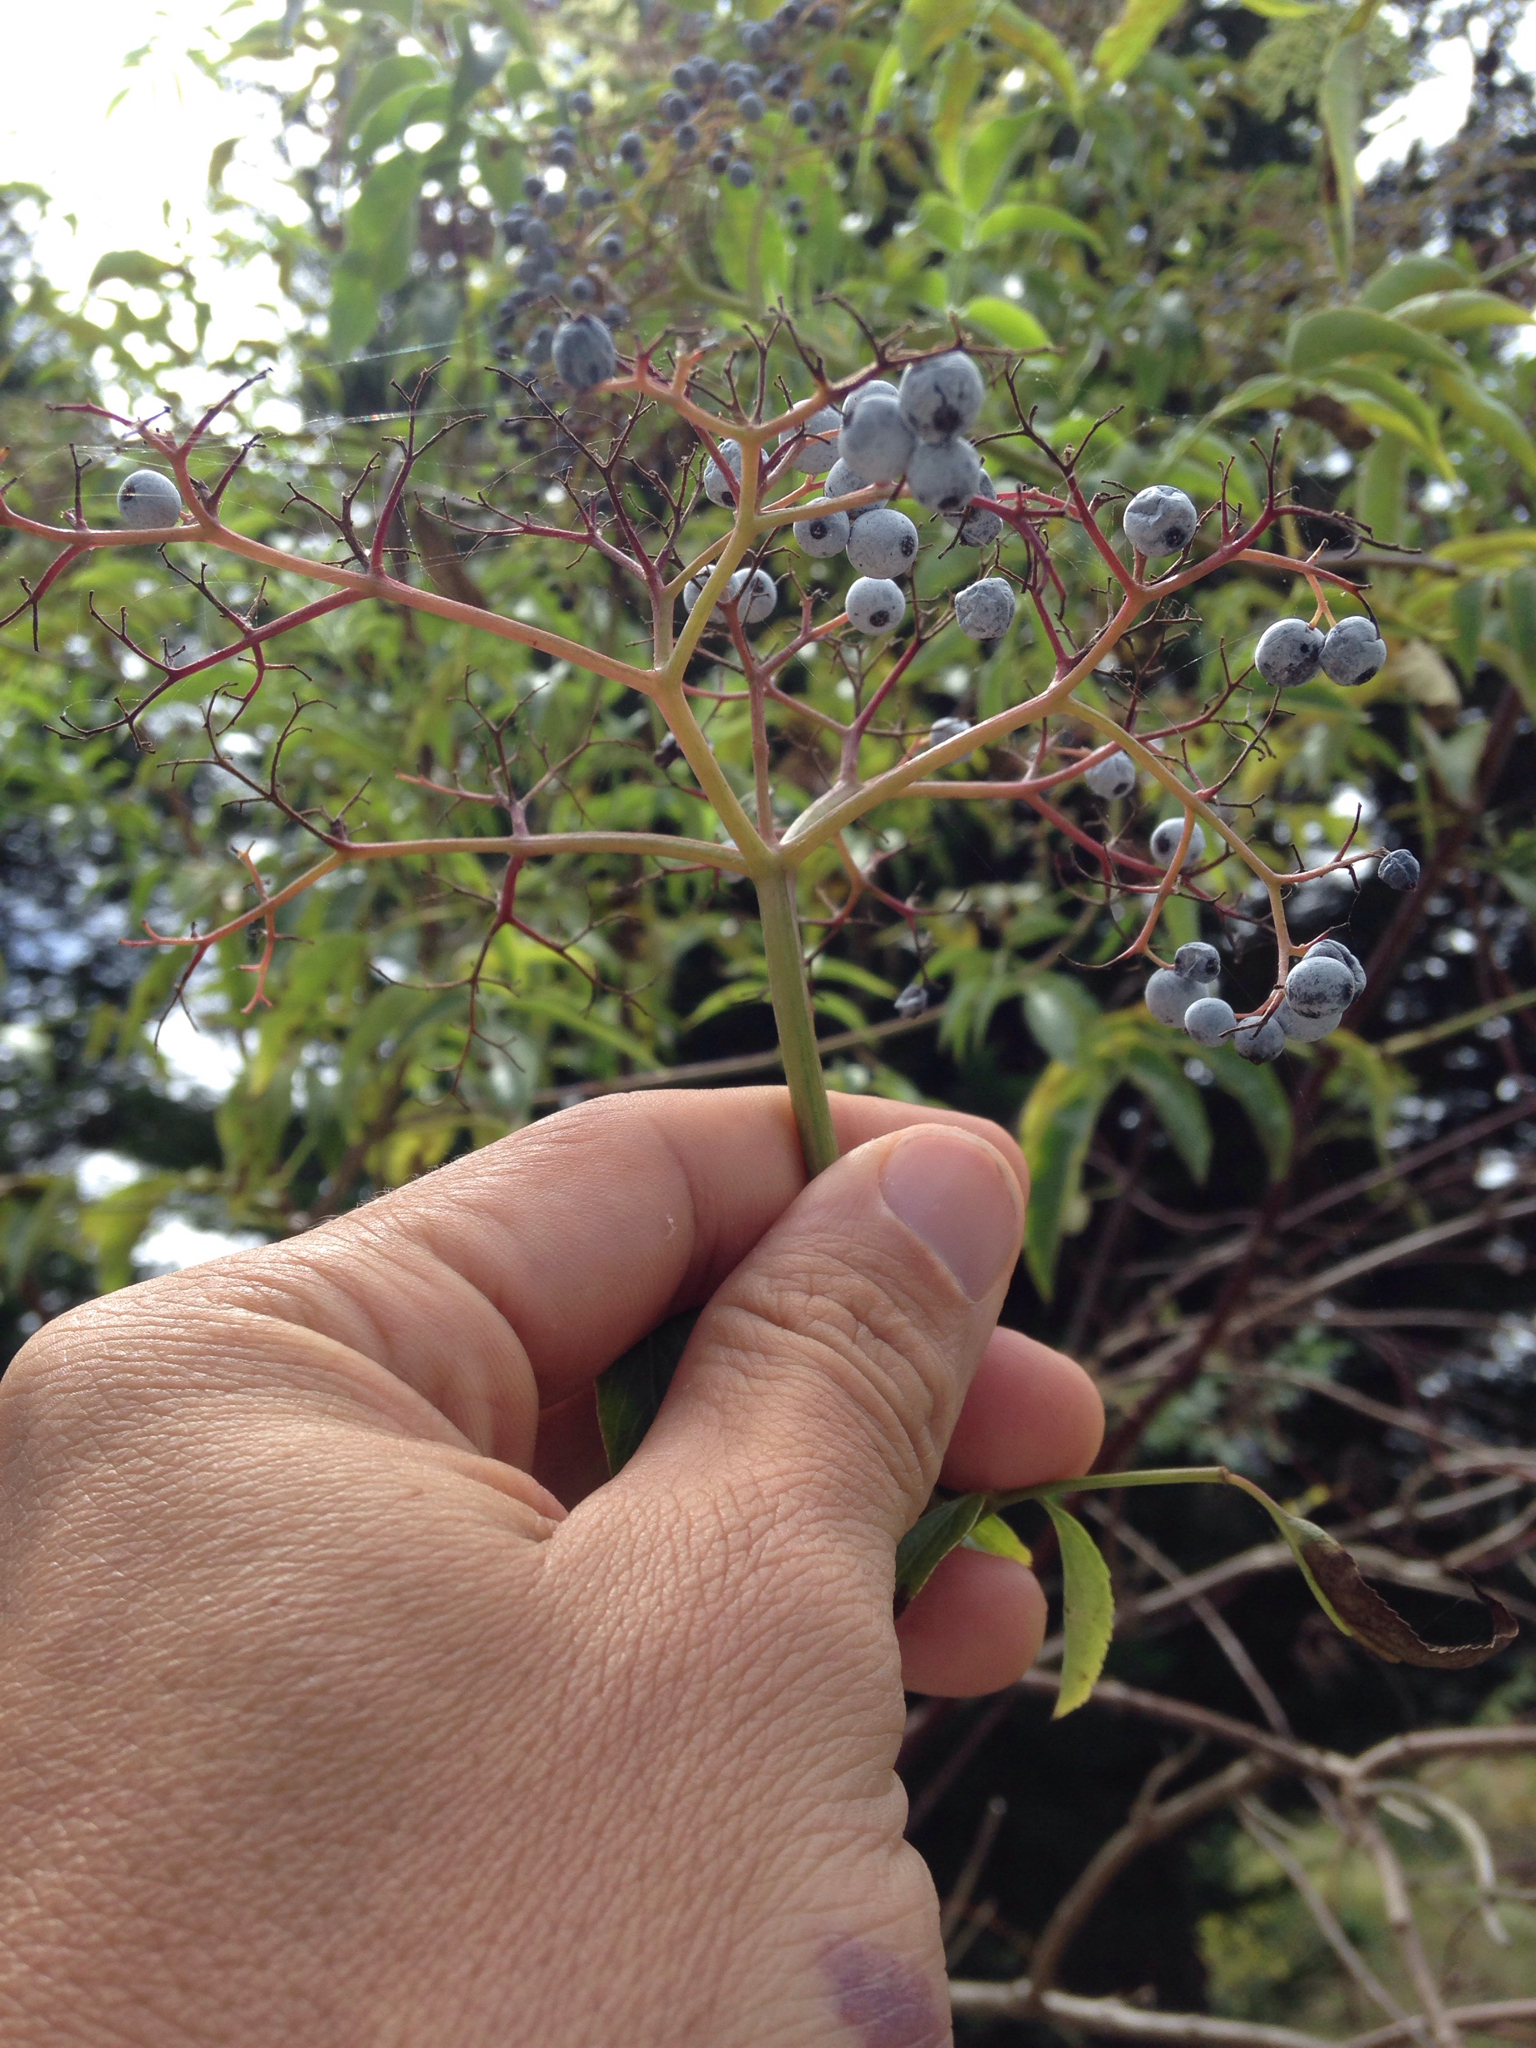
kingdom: Plantae
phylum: Tracheophyta
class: Magnoliopsida
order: Dipsacales
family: Viburnaceae
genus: Sambucus
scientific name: Sambucus cerulea
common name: Blue elder
